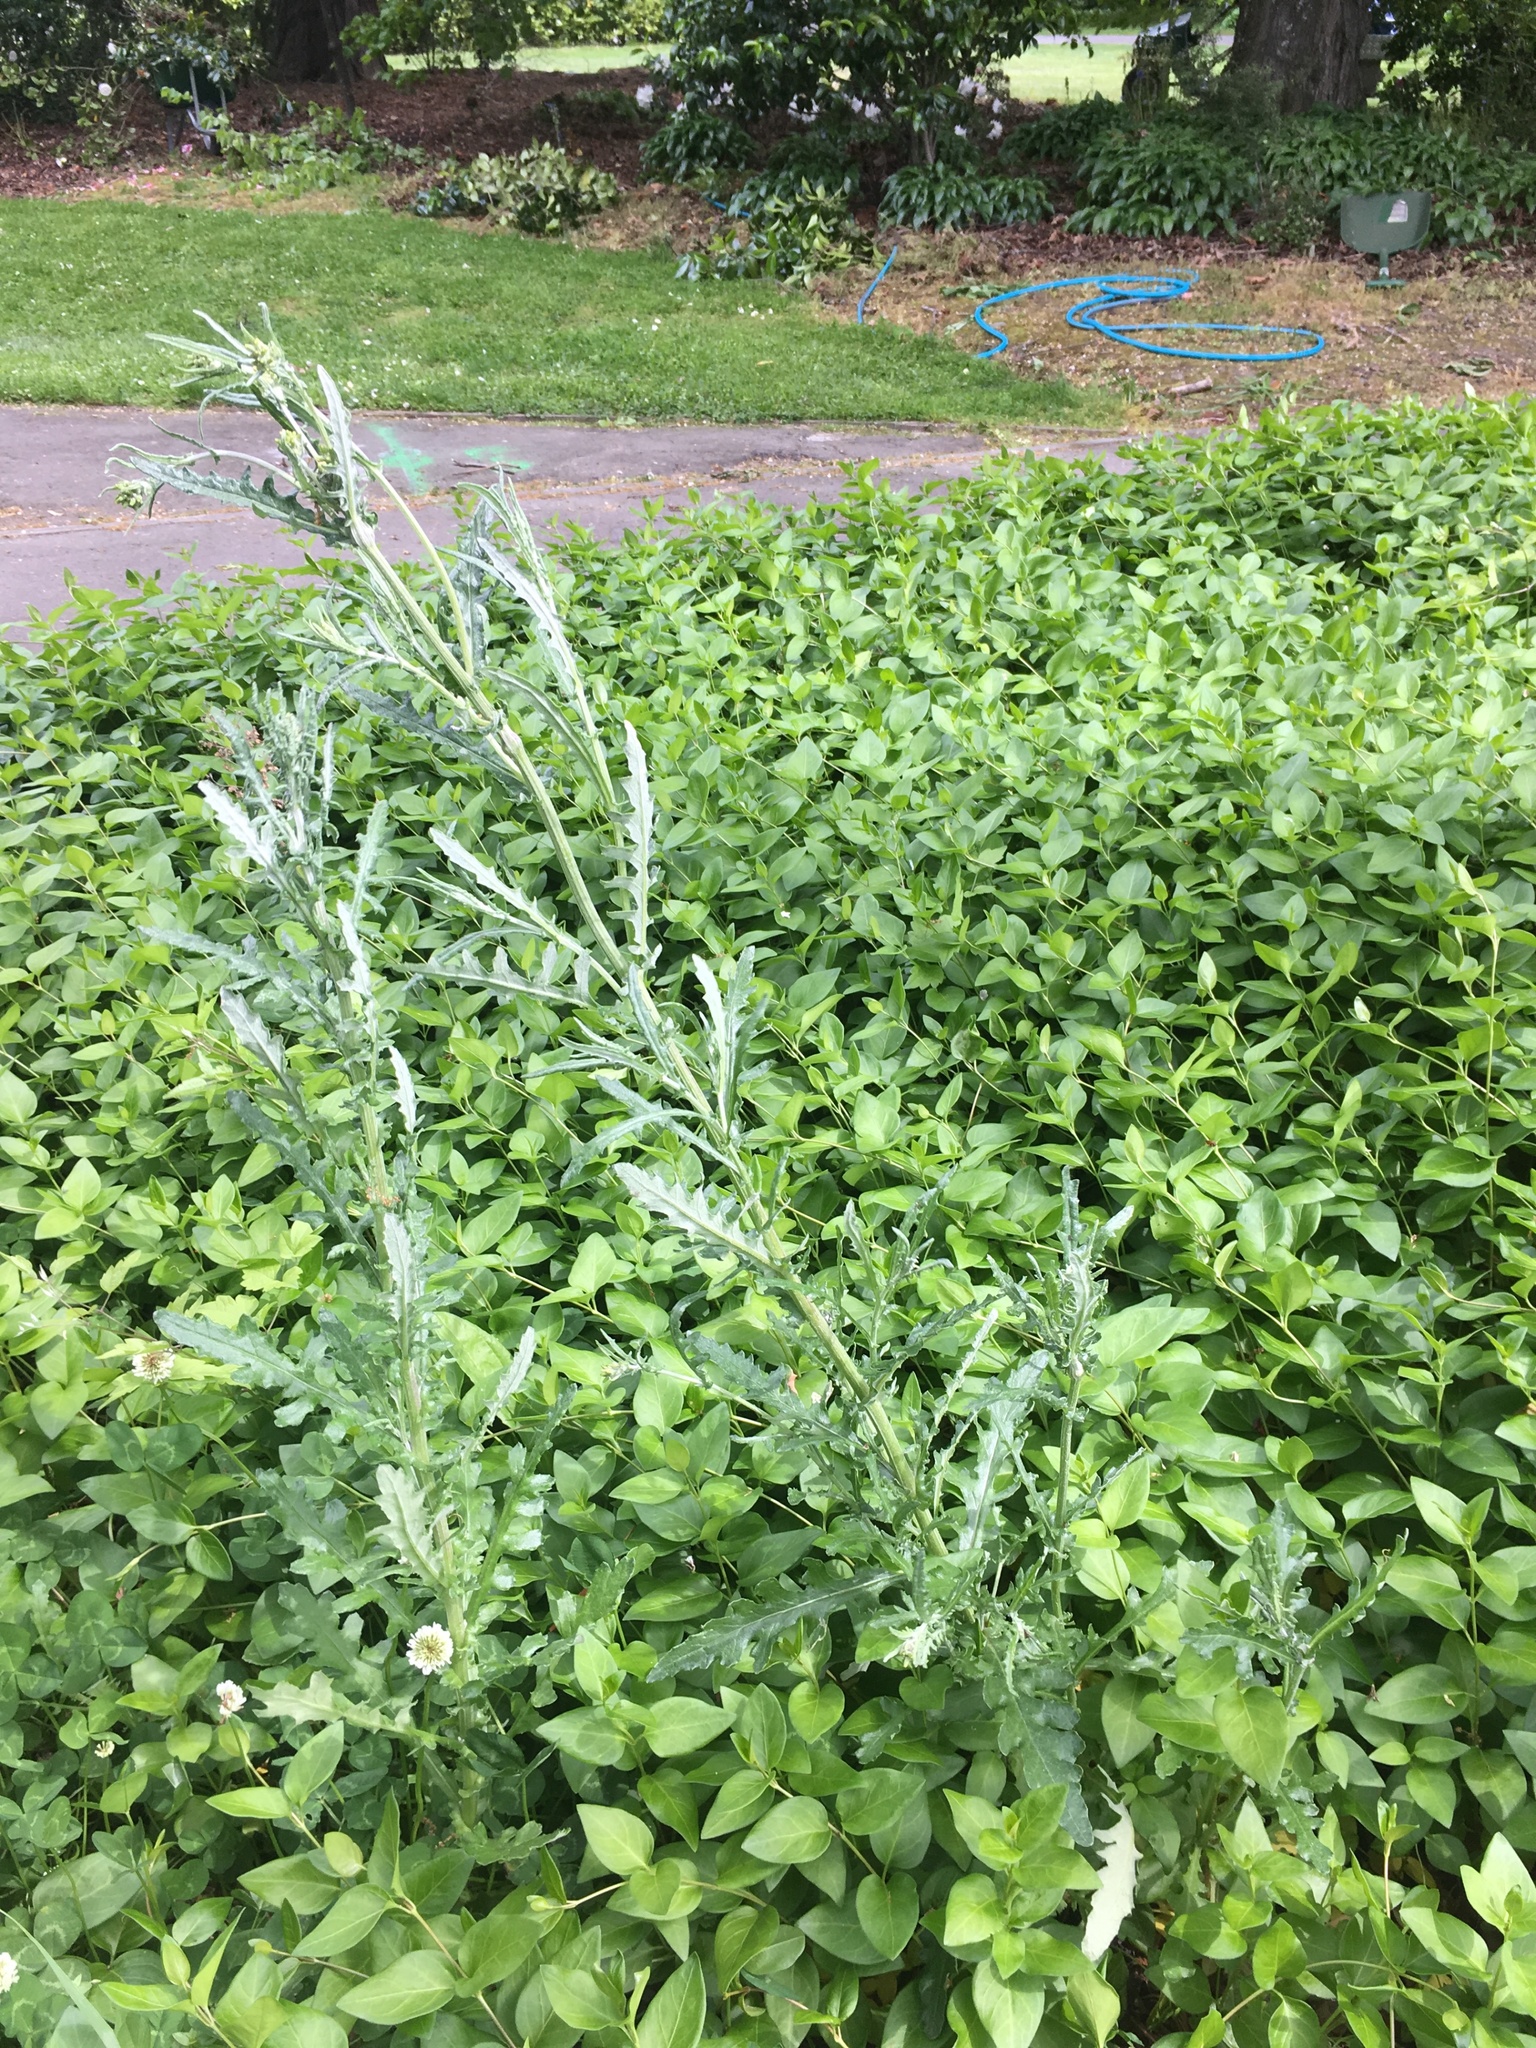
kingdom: Plantae
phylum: Tracheophyta
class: Magnoliopsida
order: Asterales
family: Asteraceae
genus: Senecio
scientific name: Senecio glomeratus
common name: Cutleaf burnweed
